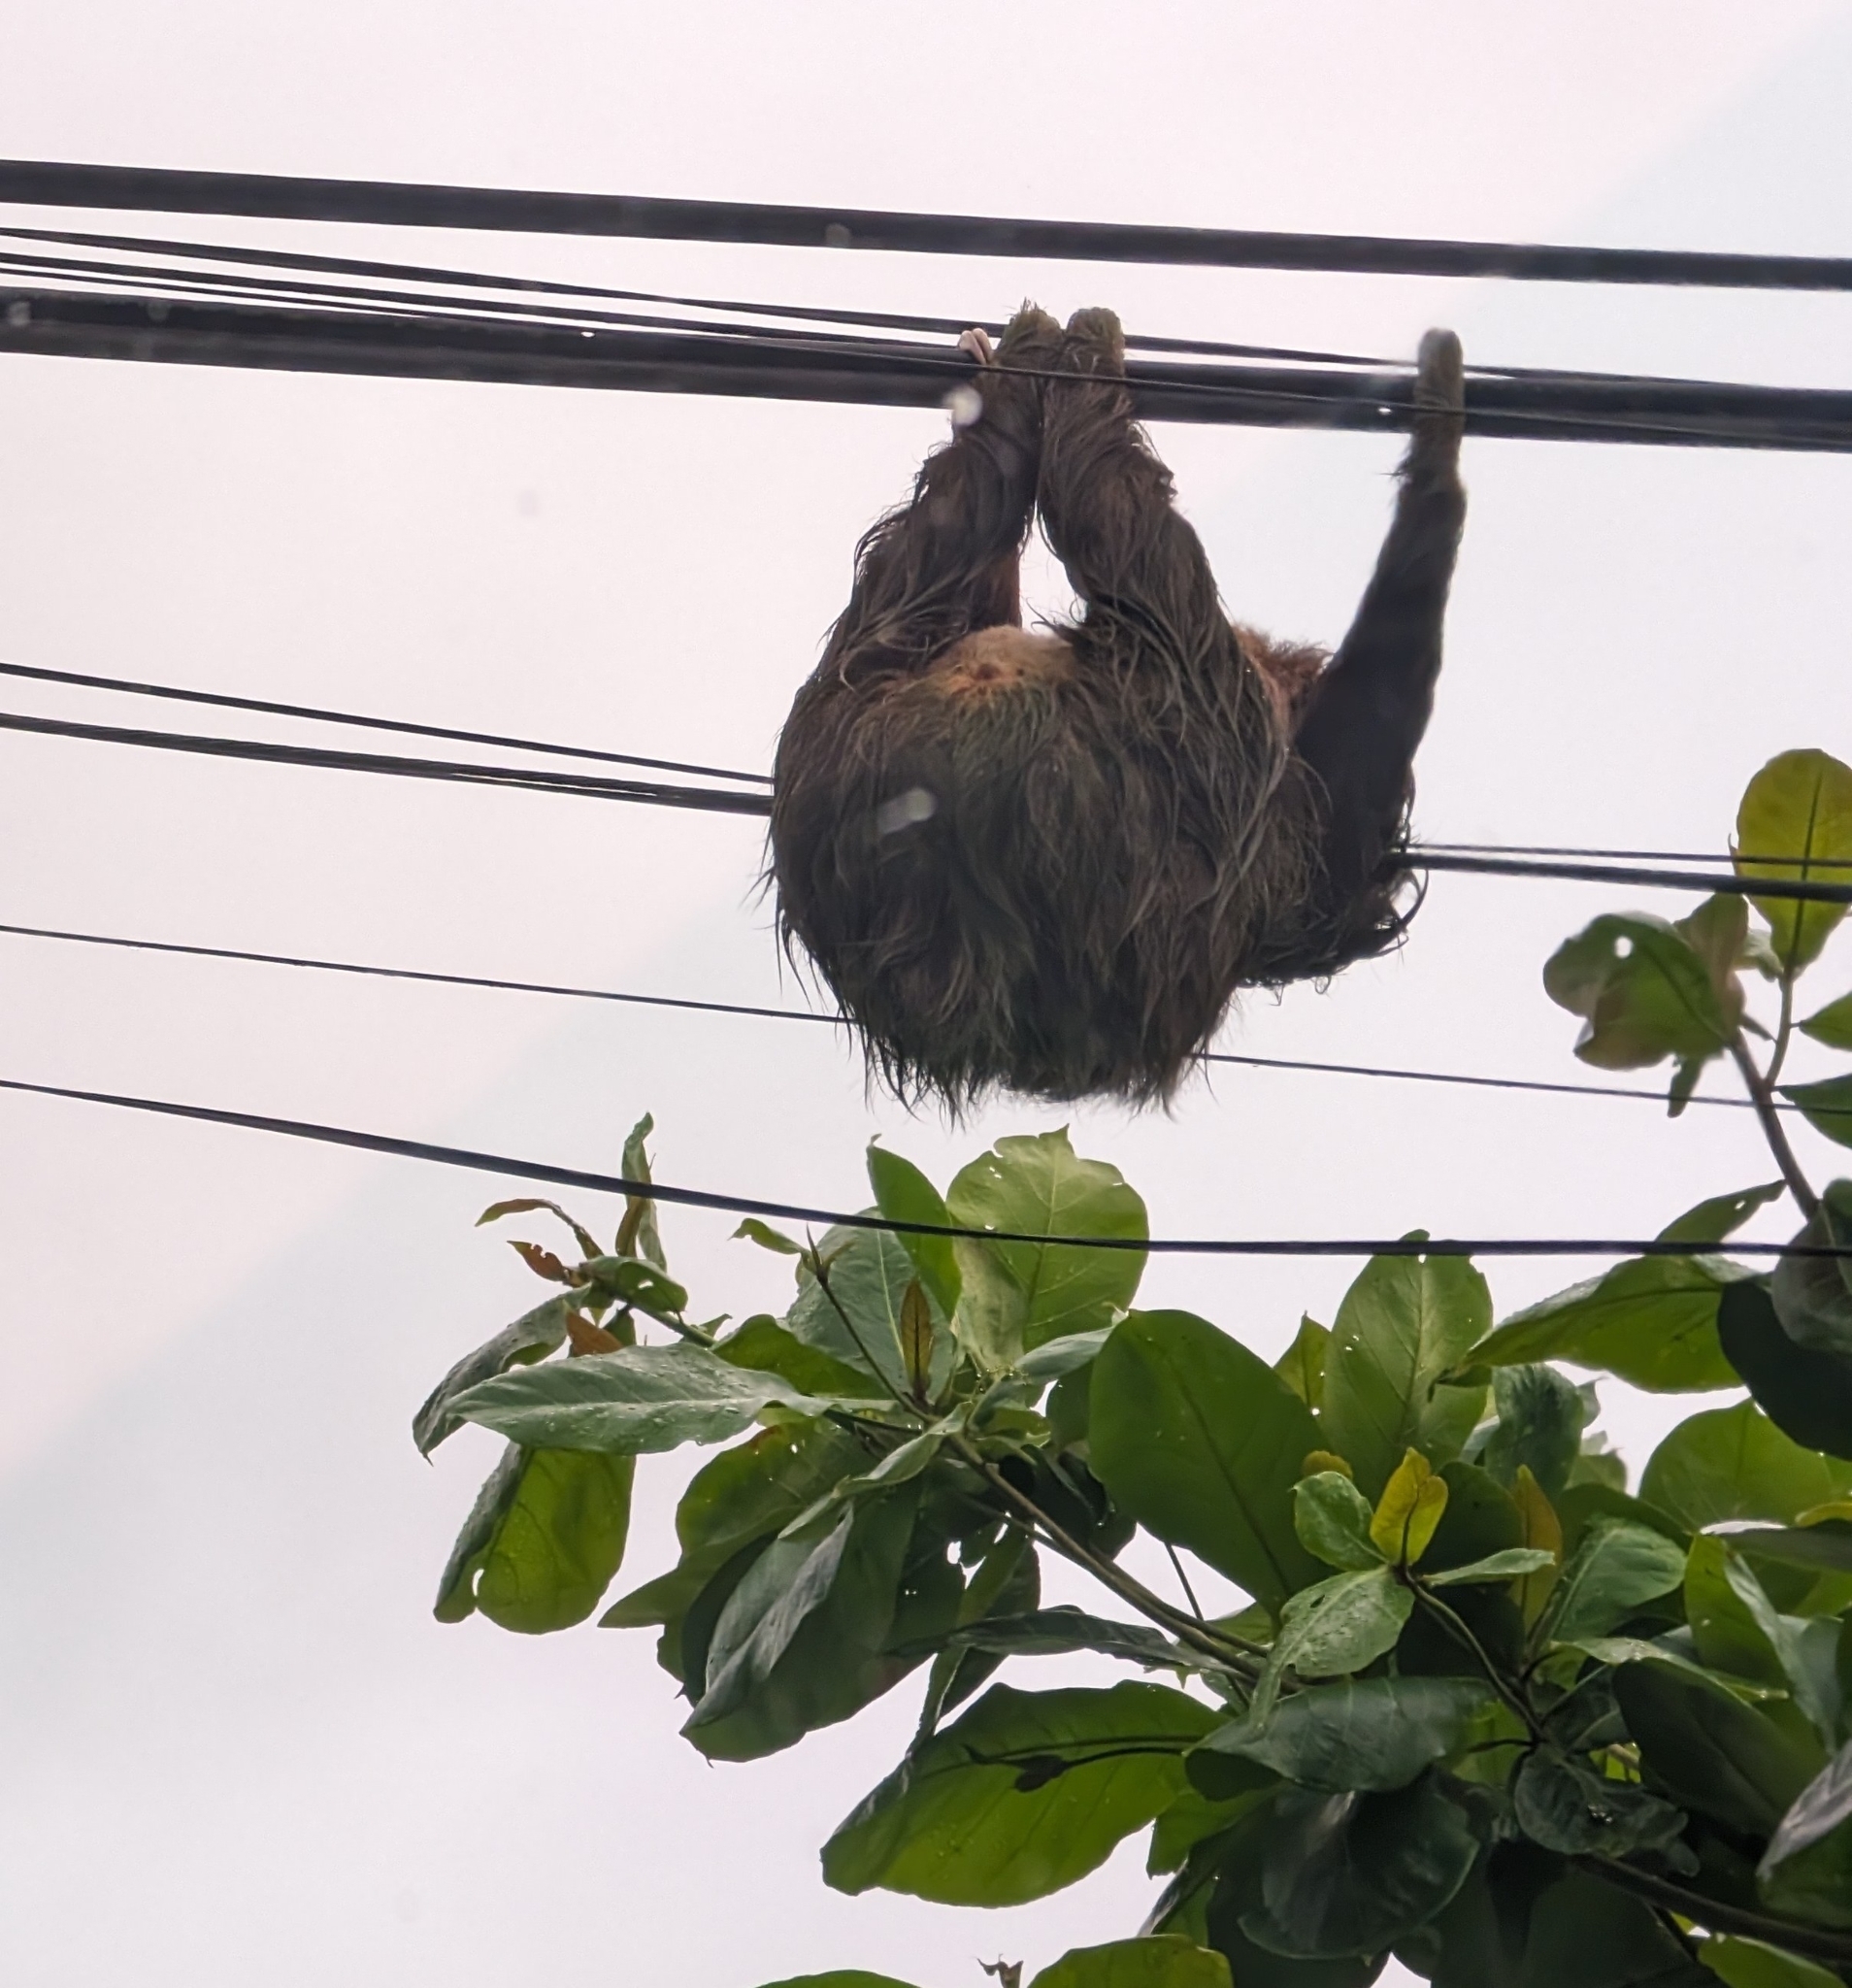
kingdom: Animalia
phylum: Chordata
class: Mammalia
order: Pilosa
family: Bradypodidae
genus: Bradypus
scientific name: Bradypus variegatus
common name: Brown-throated three-toed sloth
